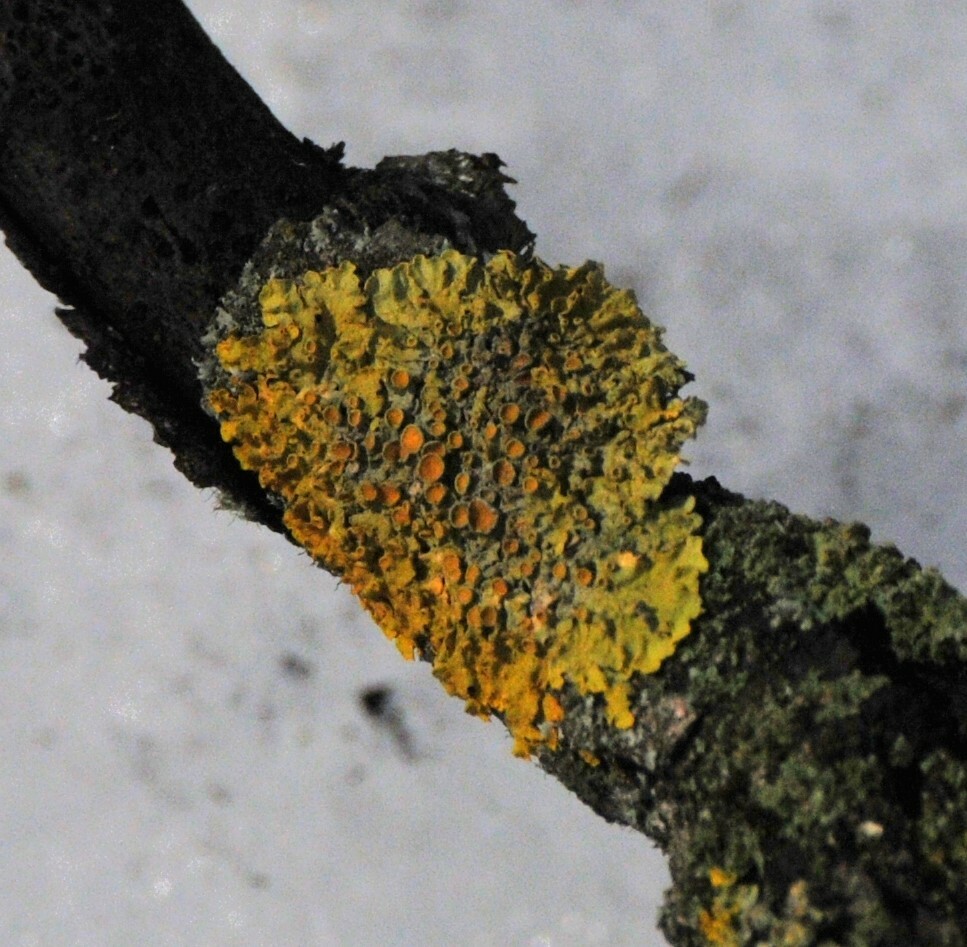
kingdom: Fungi
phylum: Ascomycota
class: Lecanoromycetes
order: Teloschistales
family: Teloschistaceae
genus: Xanthoria
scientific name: Xanthoria parietina
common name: Common orange lichen
